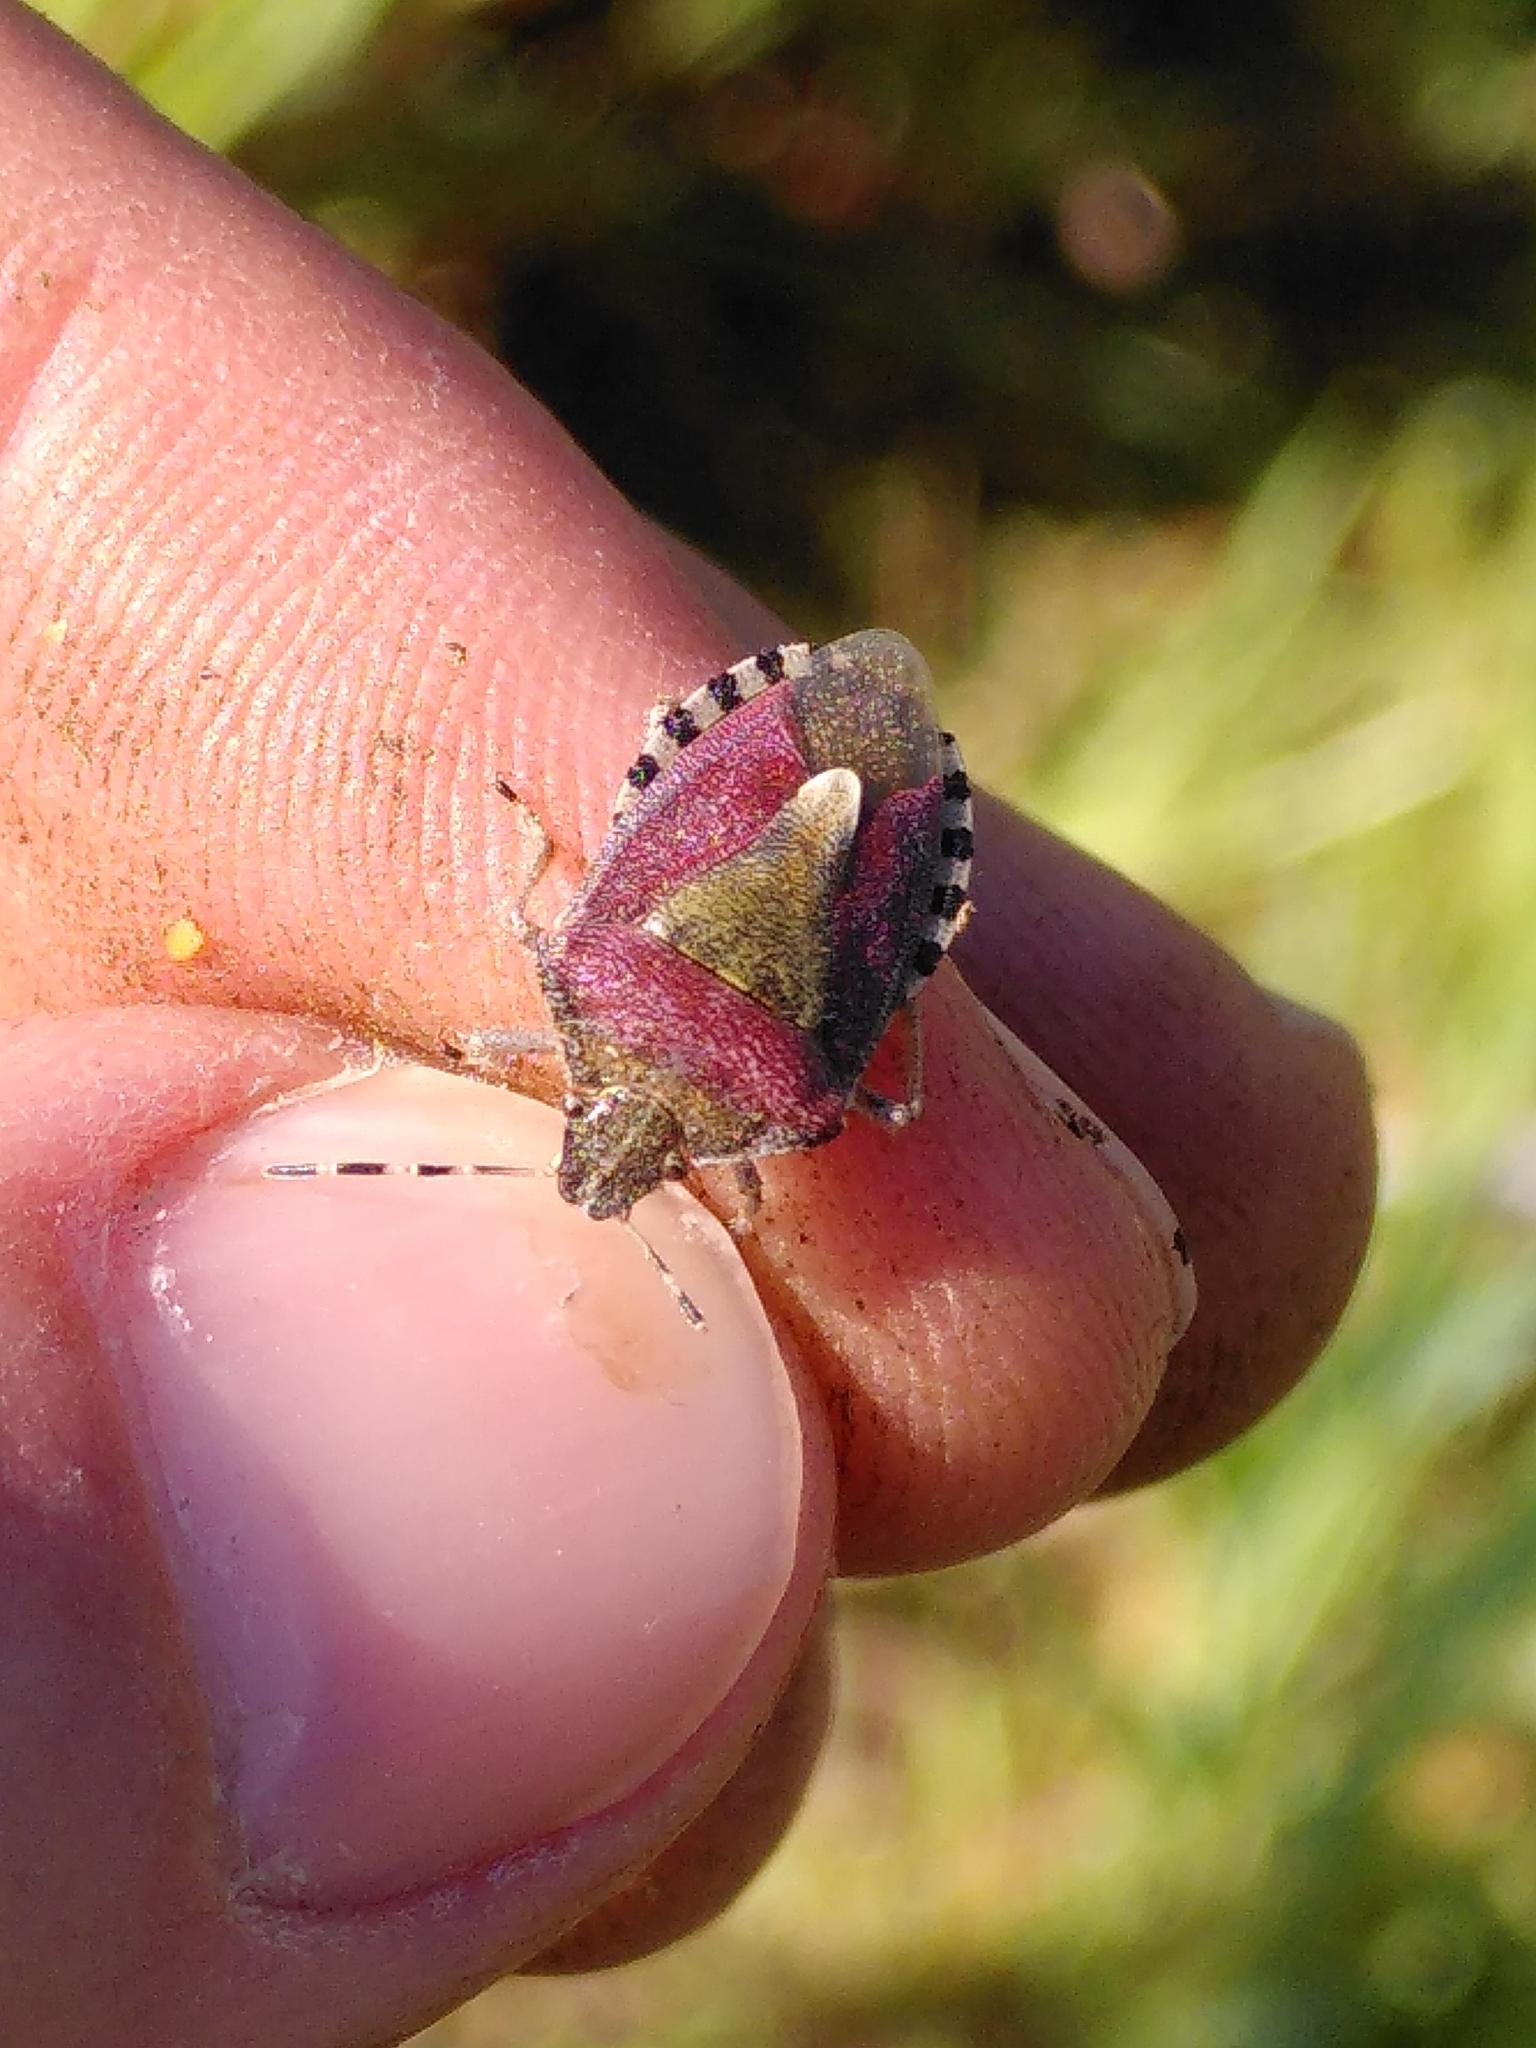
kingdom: Animalia
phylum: Arthropoda
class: Insecta
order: Hemiptera
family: Pentatomidae
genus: Dolycoris
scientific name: Dolycoris baccarum
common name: Sloe bug
